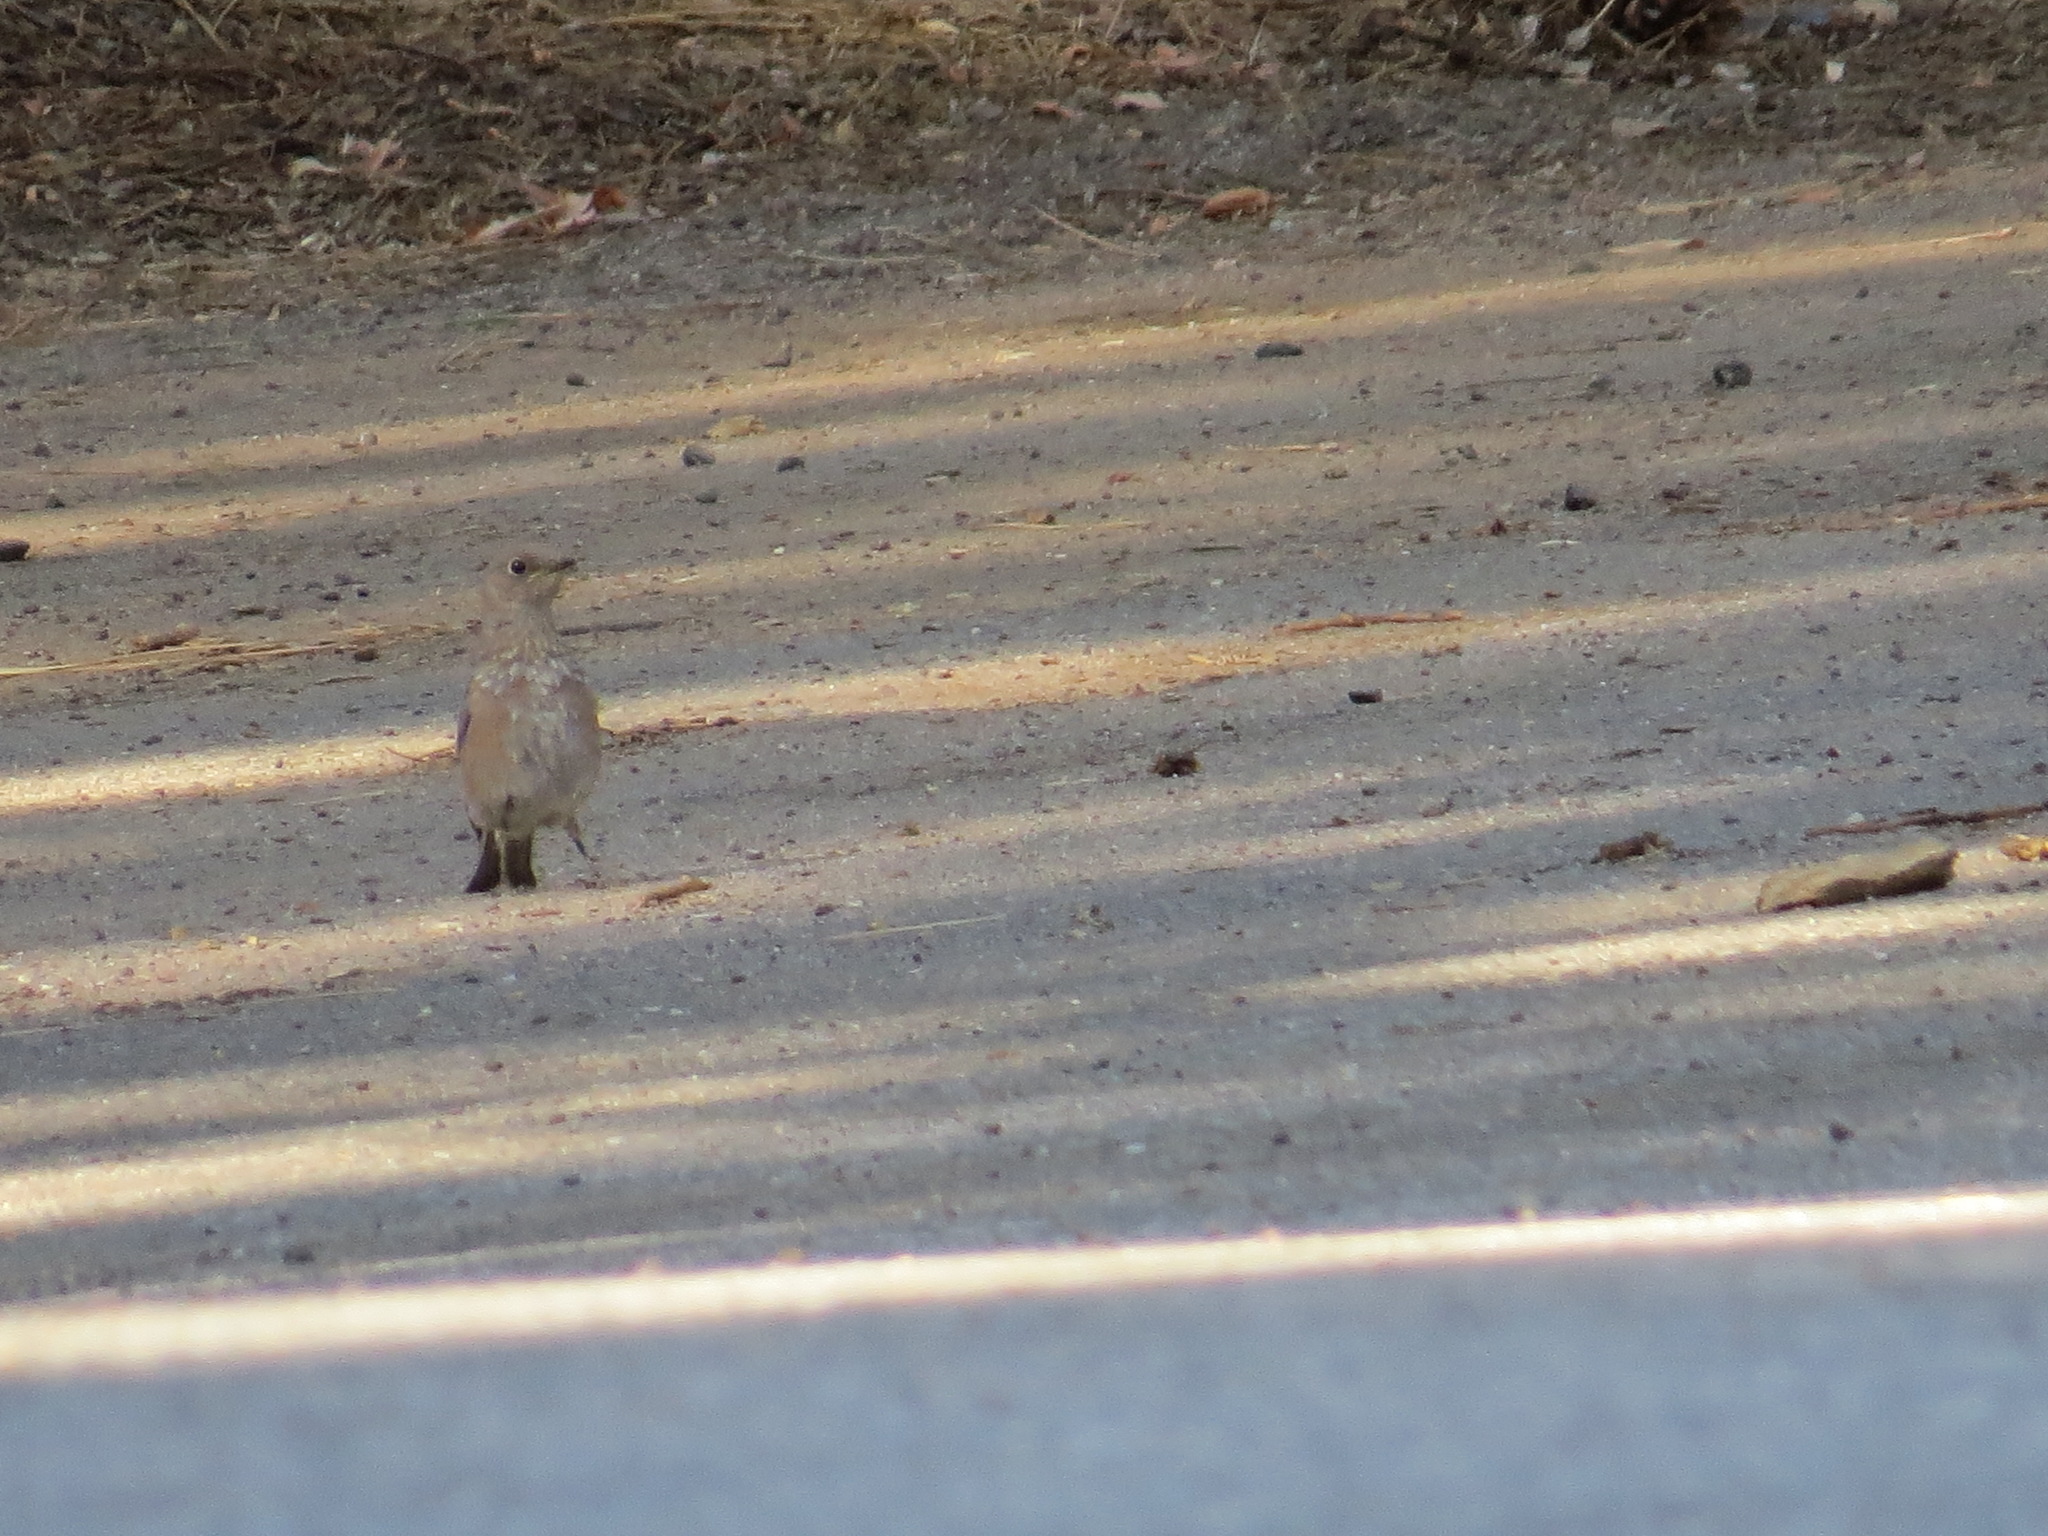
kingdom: Animalia
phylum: Chordata
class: Aves
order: Passeriformes
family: Turdidae
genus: Sialia
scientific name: Sialia mexicana
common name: Western bluebird
